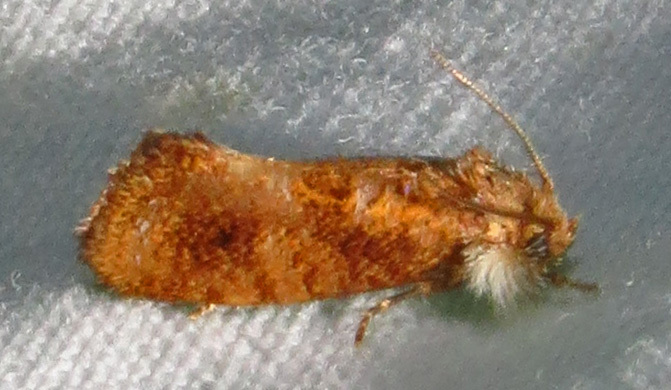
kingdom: Animalia
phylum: Arthropoda
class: Insecta
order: Lepidoptera
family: Tineidae
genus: Acrolophus
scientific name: Acrolophus panamae
